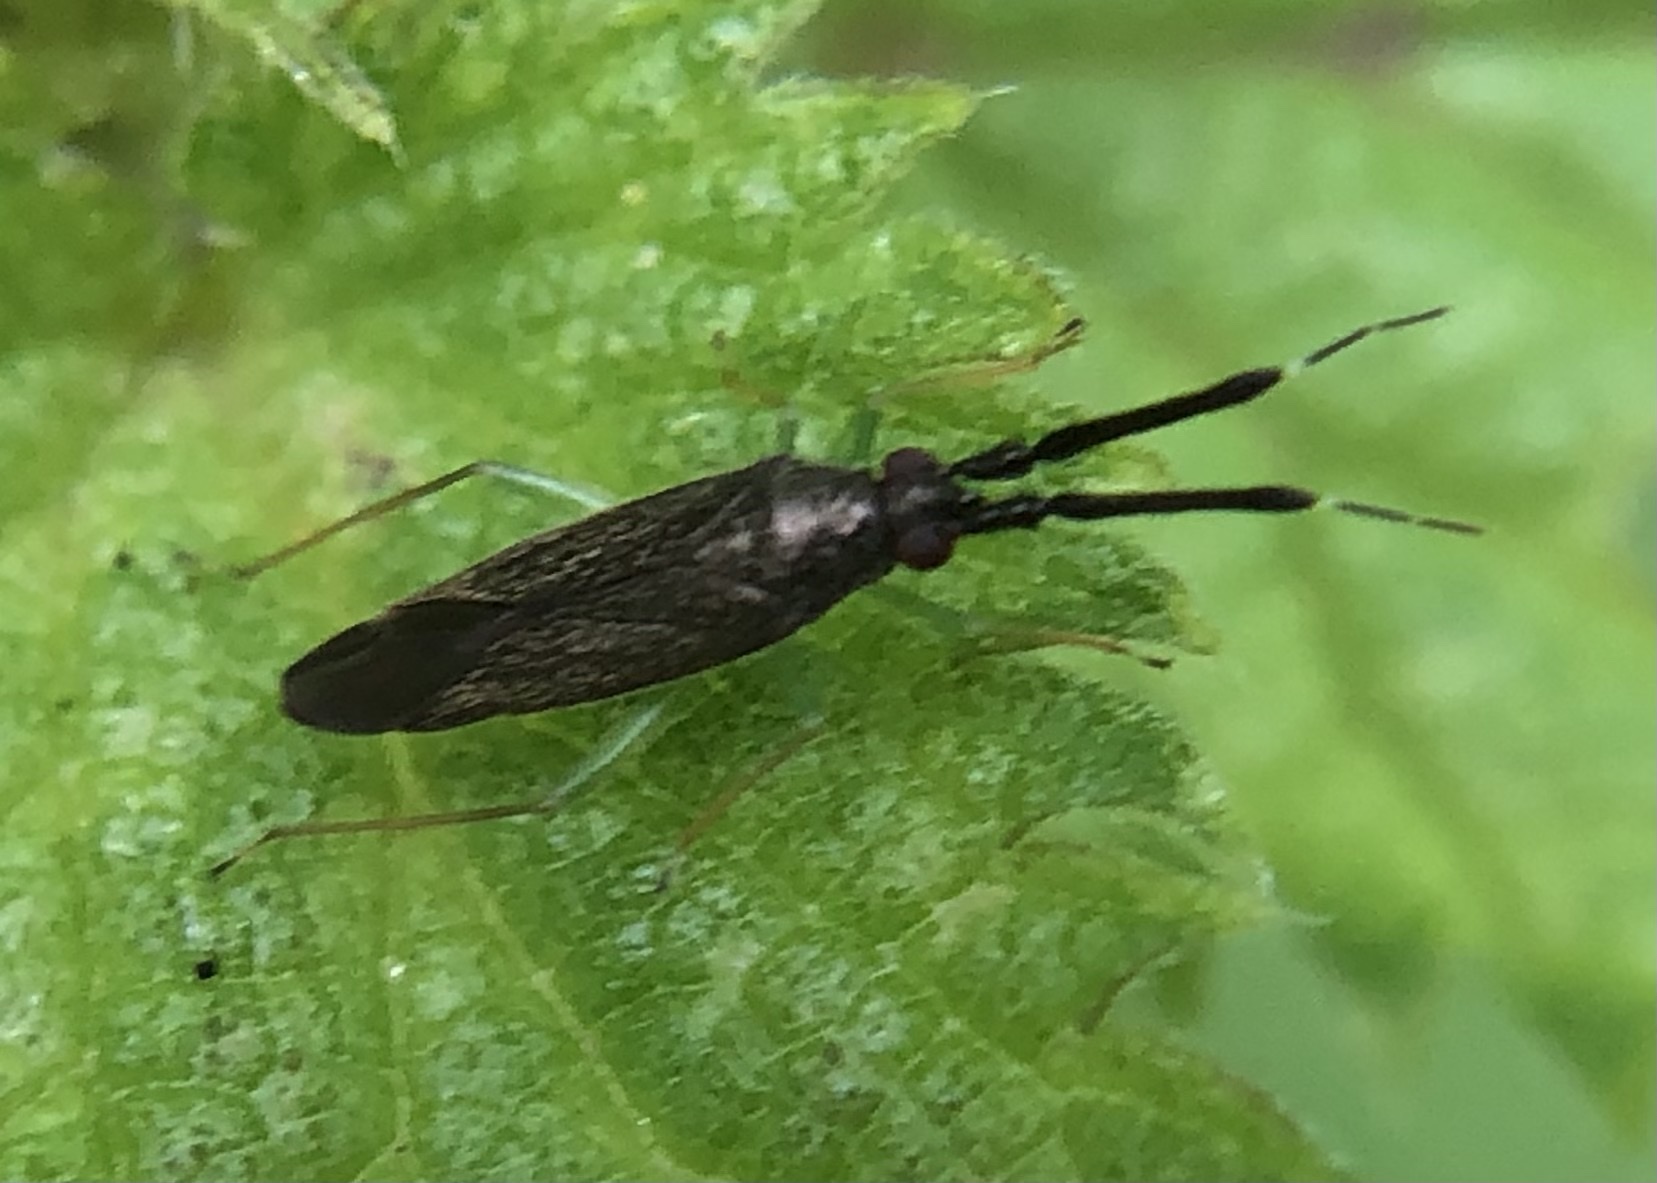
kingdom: Animalia
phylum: Arthropoda
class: Insecta
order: Hemiptera
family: Miridae
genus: Heterotoma
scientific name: Heterotoma planicornis
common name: Plant bug
